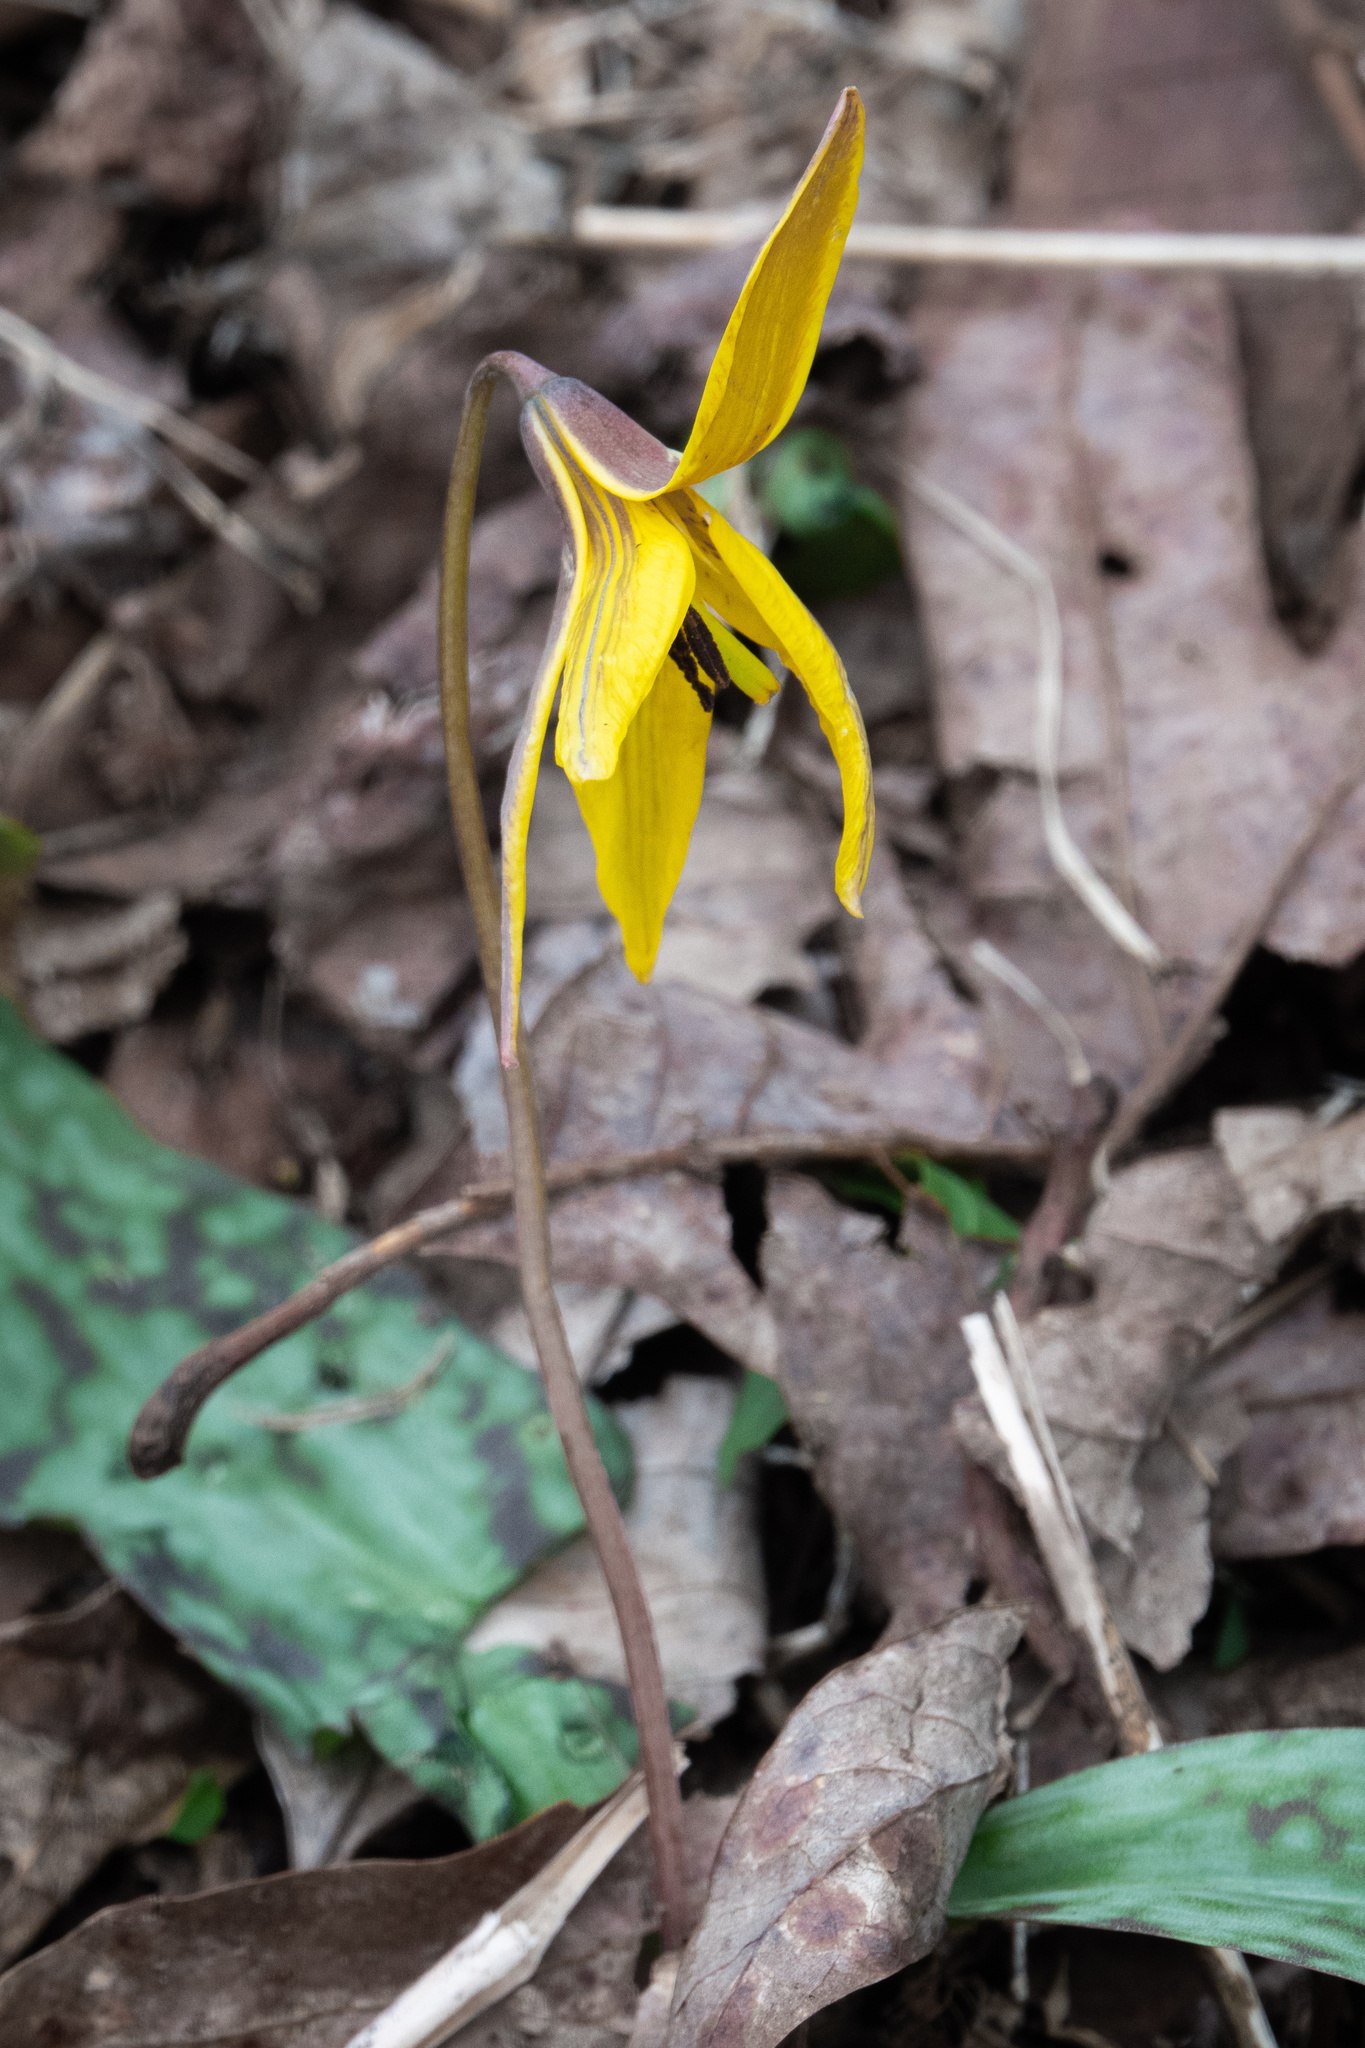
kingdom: Plantae
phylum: Tracheophyta
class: Liliopsida
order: Liliales
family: Liliaceae
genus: Erythronium
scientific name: Erythronium americanum
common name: Yellow adder's-tongue
